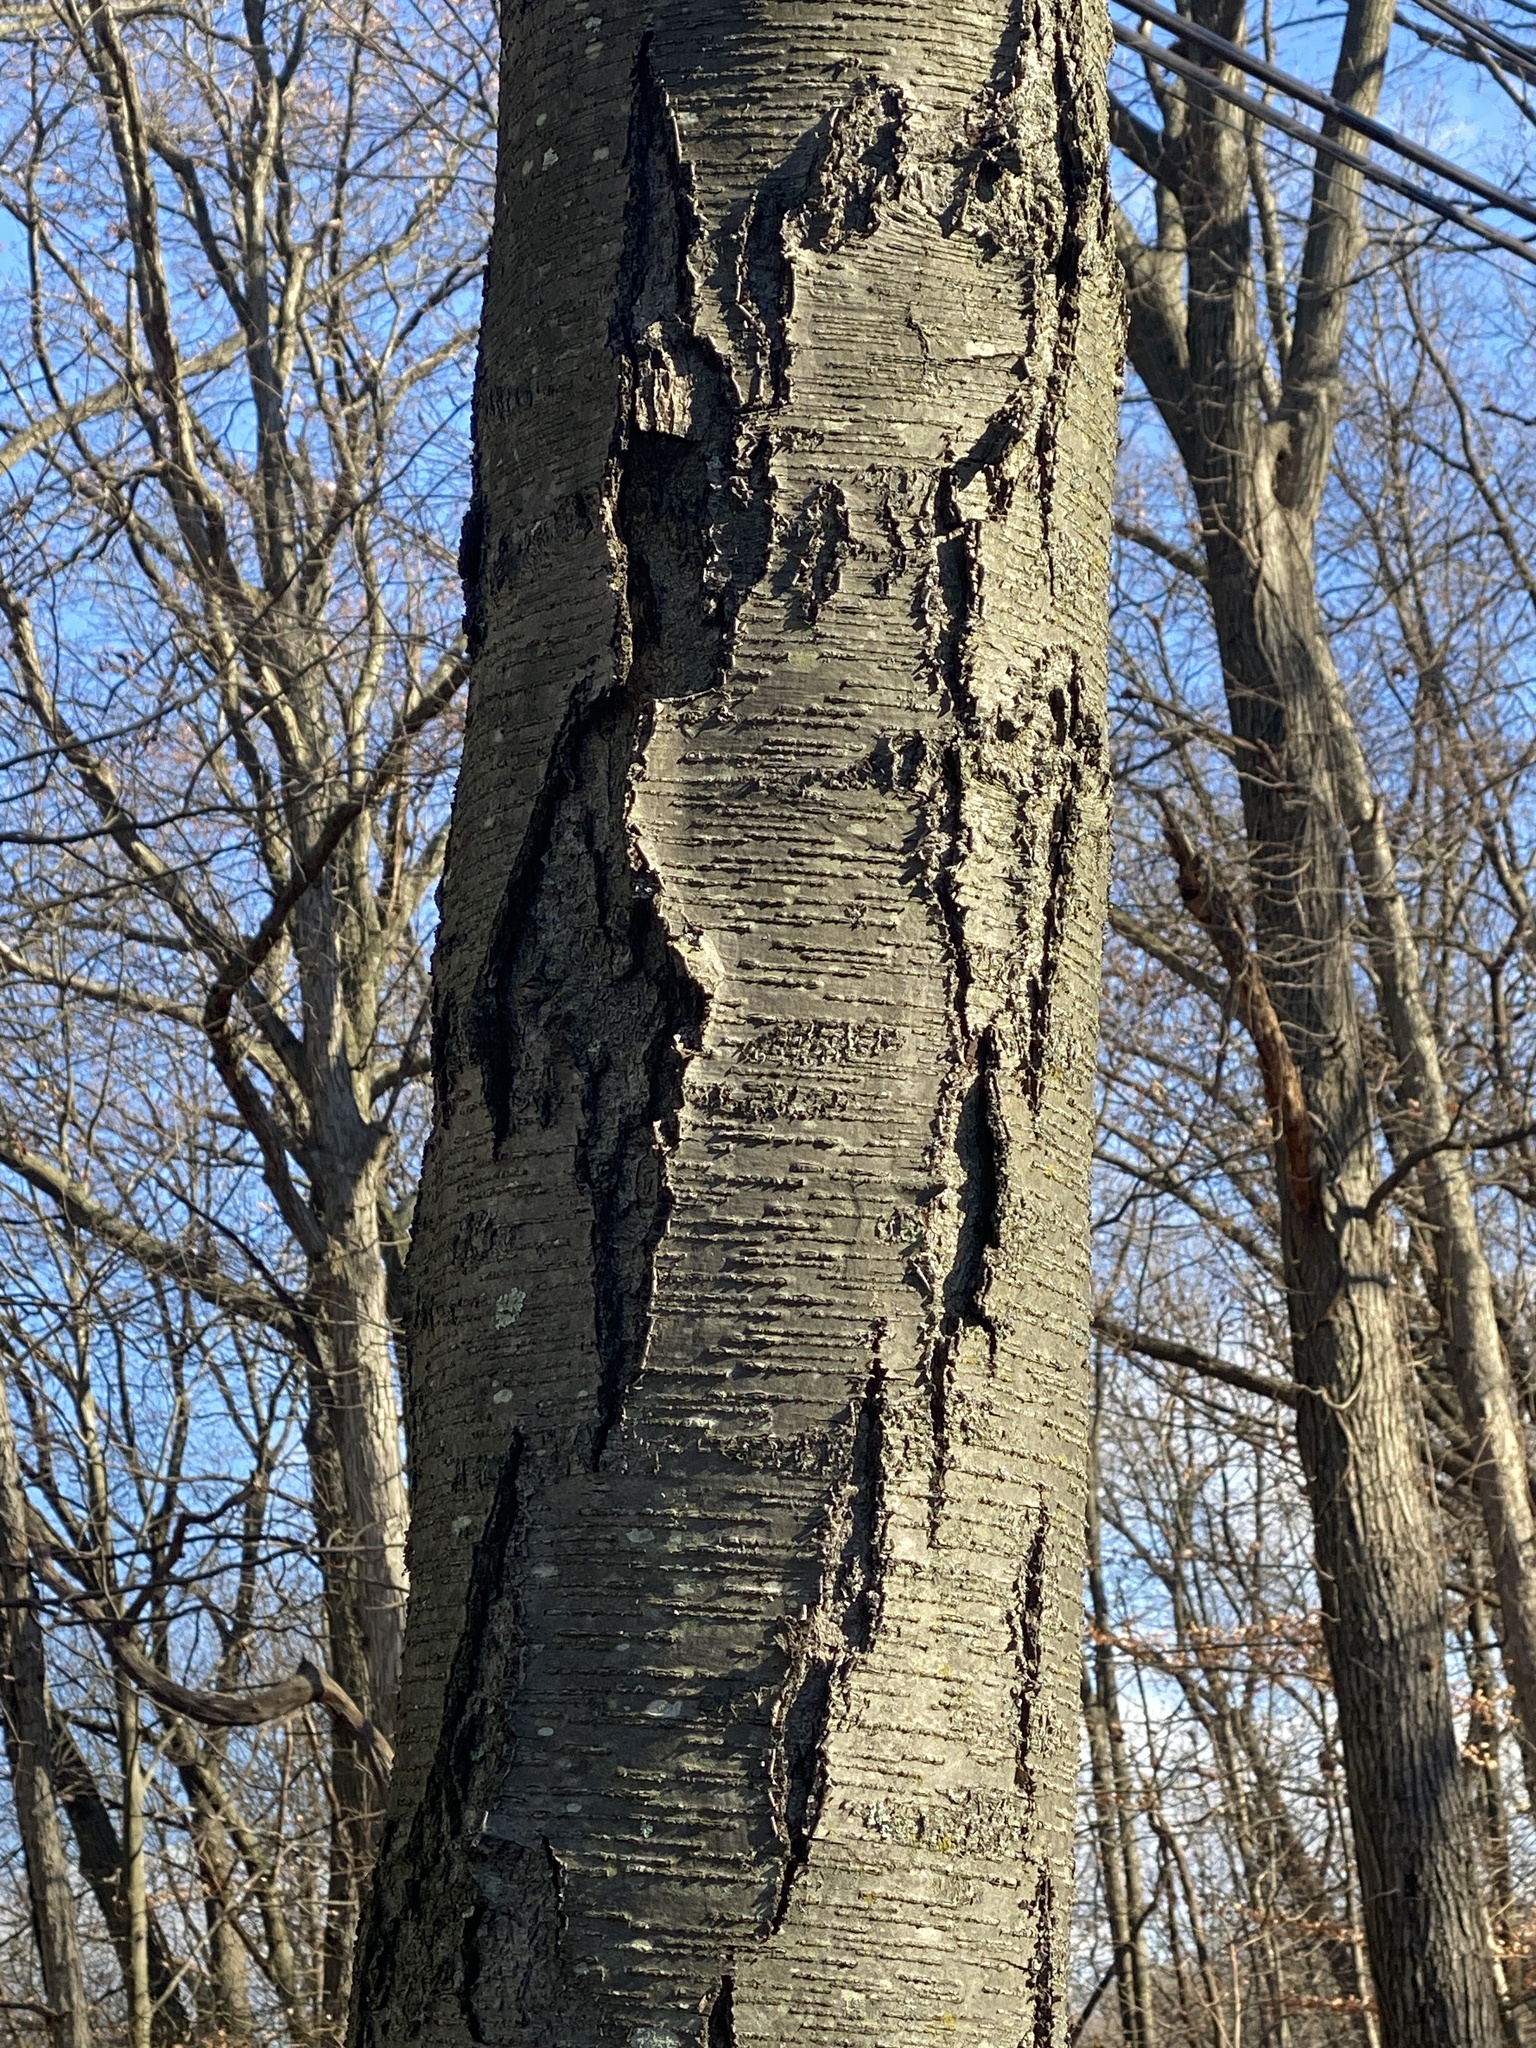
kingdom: Plantae
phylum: Tracheophyta
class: Magnoliopsida
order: Fagales
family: Betulaceae
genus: Betula
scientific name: Betula lenta
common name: Black birch
